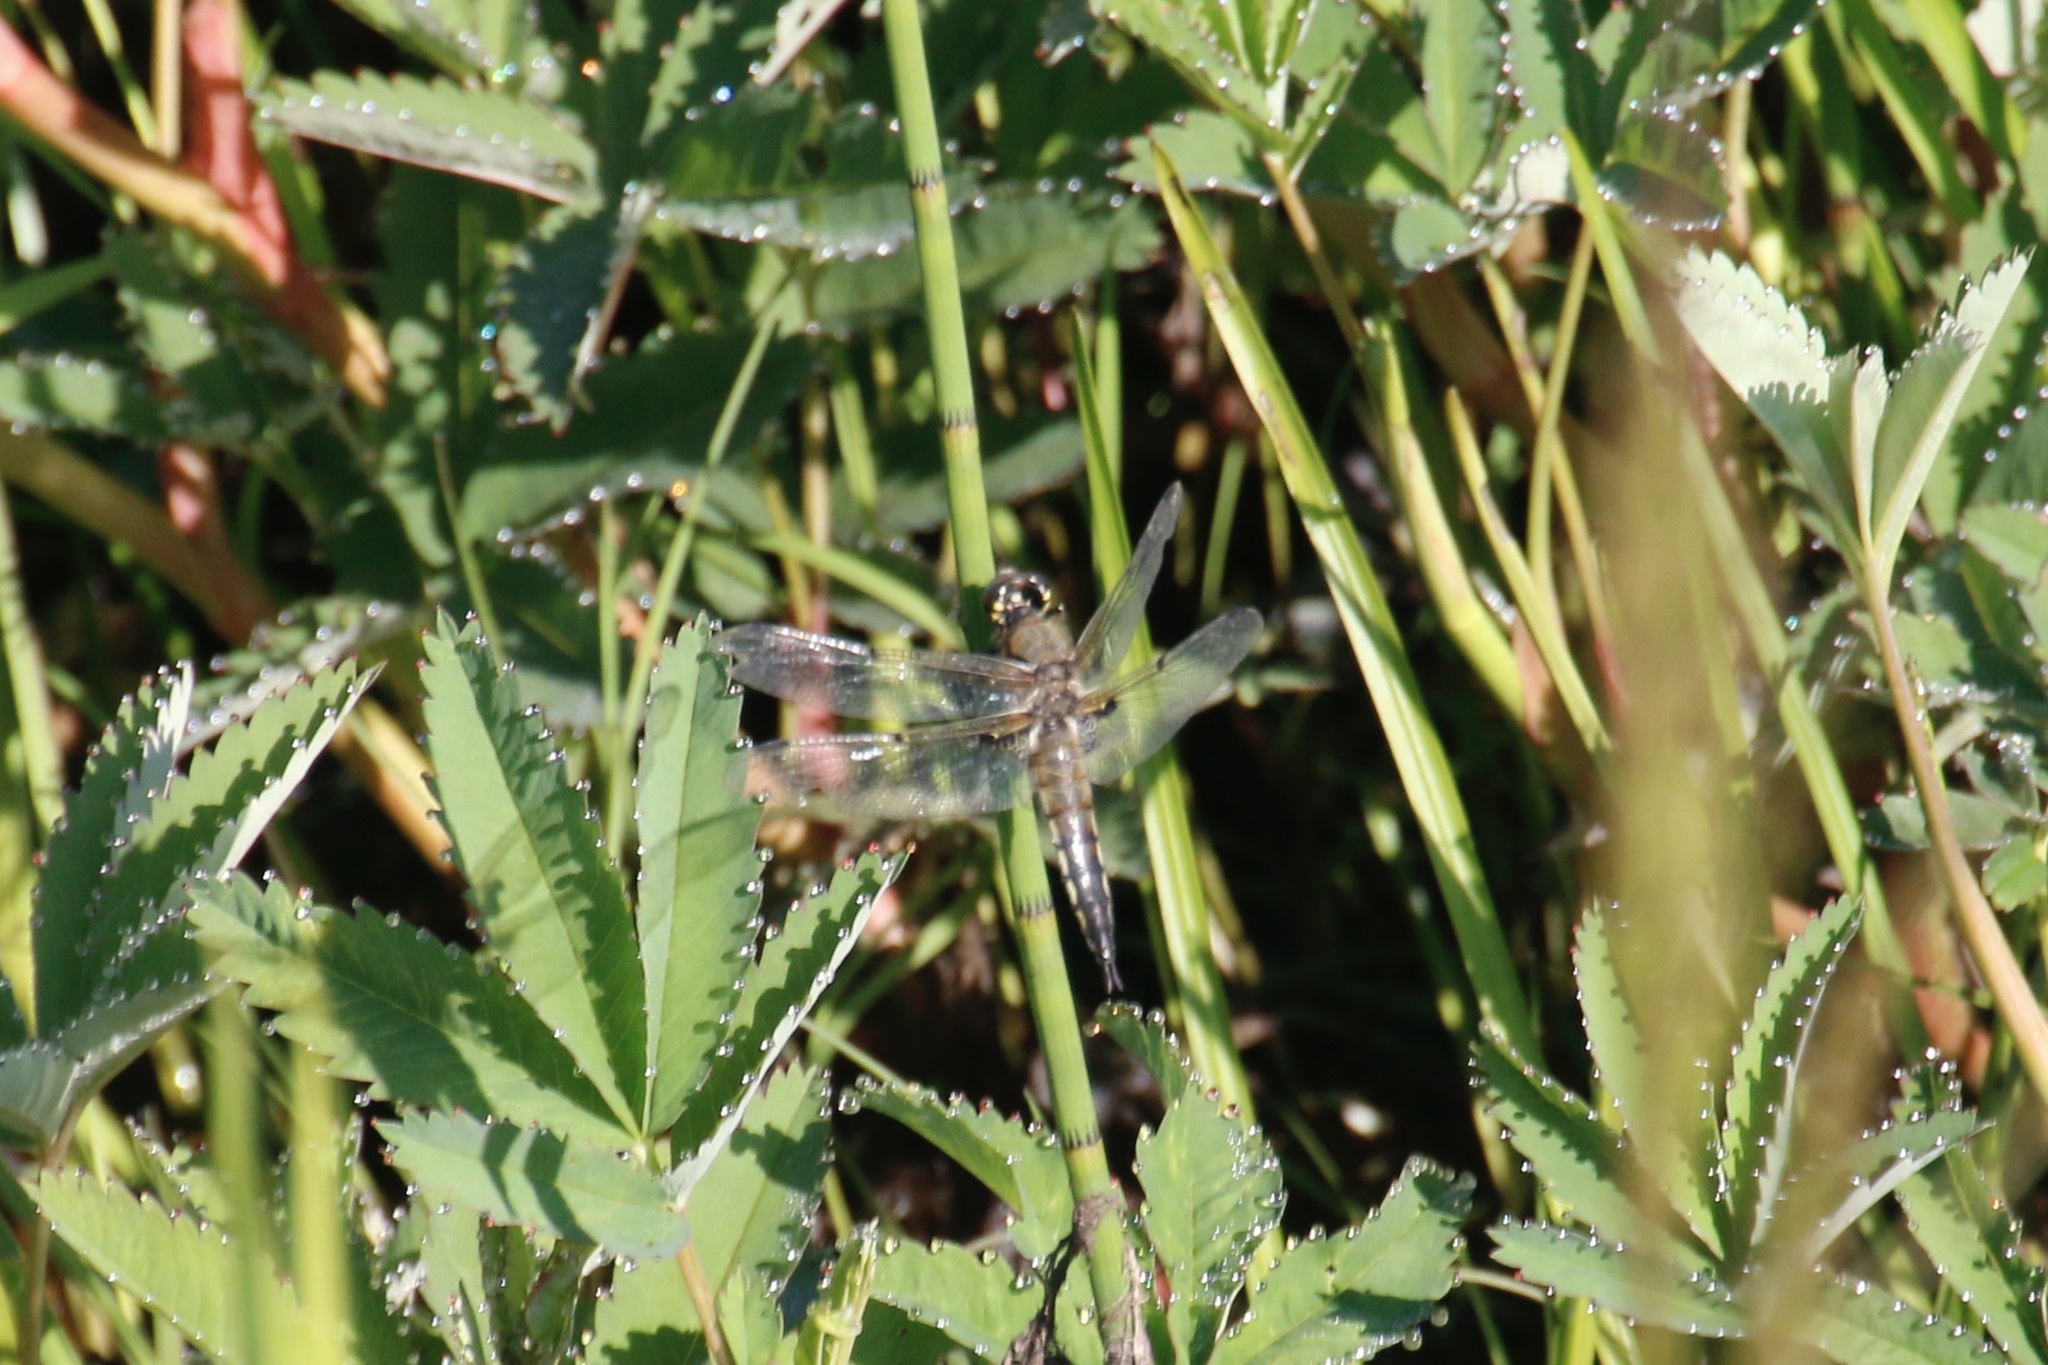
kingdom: Animalia
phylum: Arthropoda
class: Insecta
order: Odonata
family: Libellulidae
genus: Libellula
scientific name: Libellula quadrimaculata
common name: Four-spotted chaser
